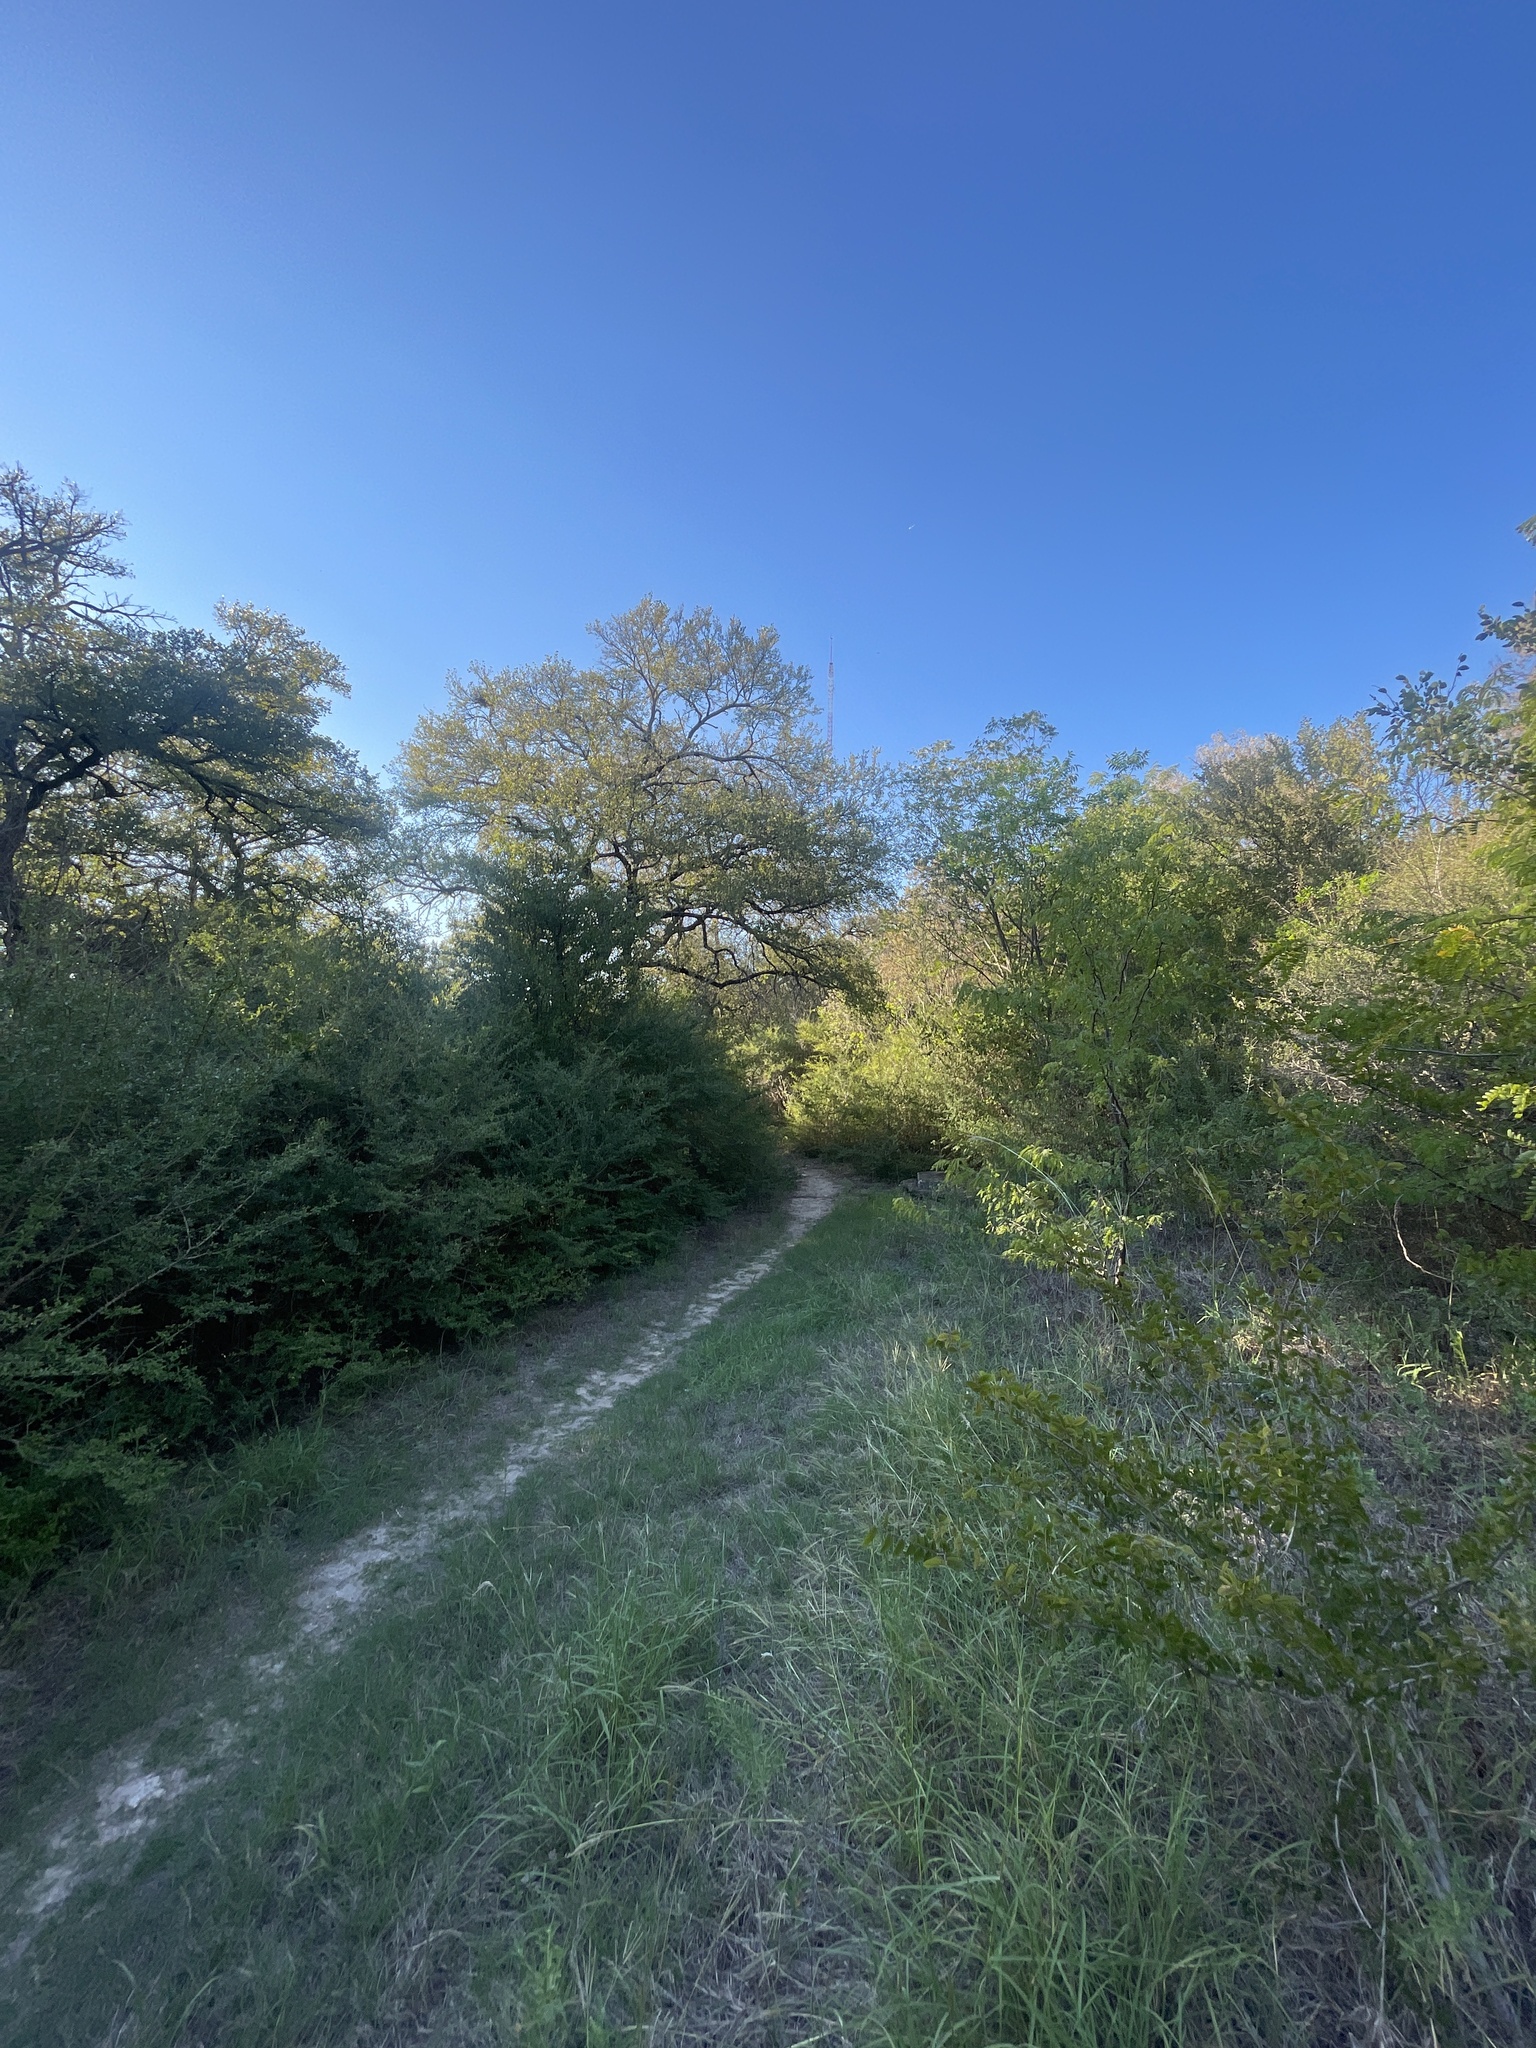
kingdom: Animalia
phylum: Chordata
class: Aves
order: Passeriformes
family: Paridae
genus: Poecile
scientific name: Poecile carolinensis
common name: Carolina chickadee
